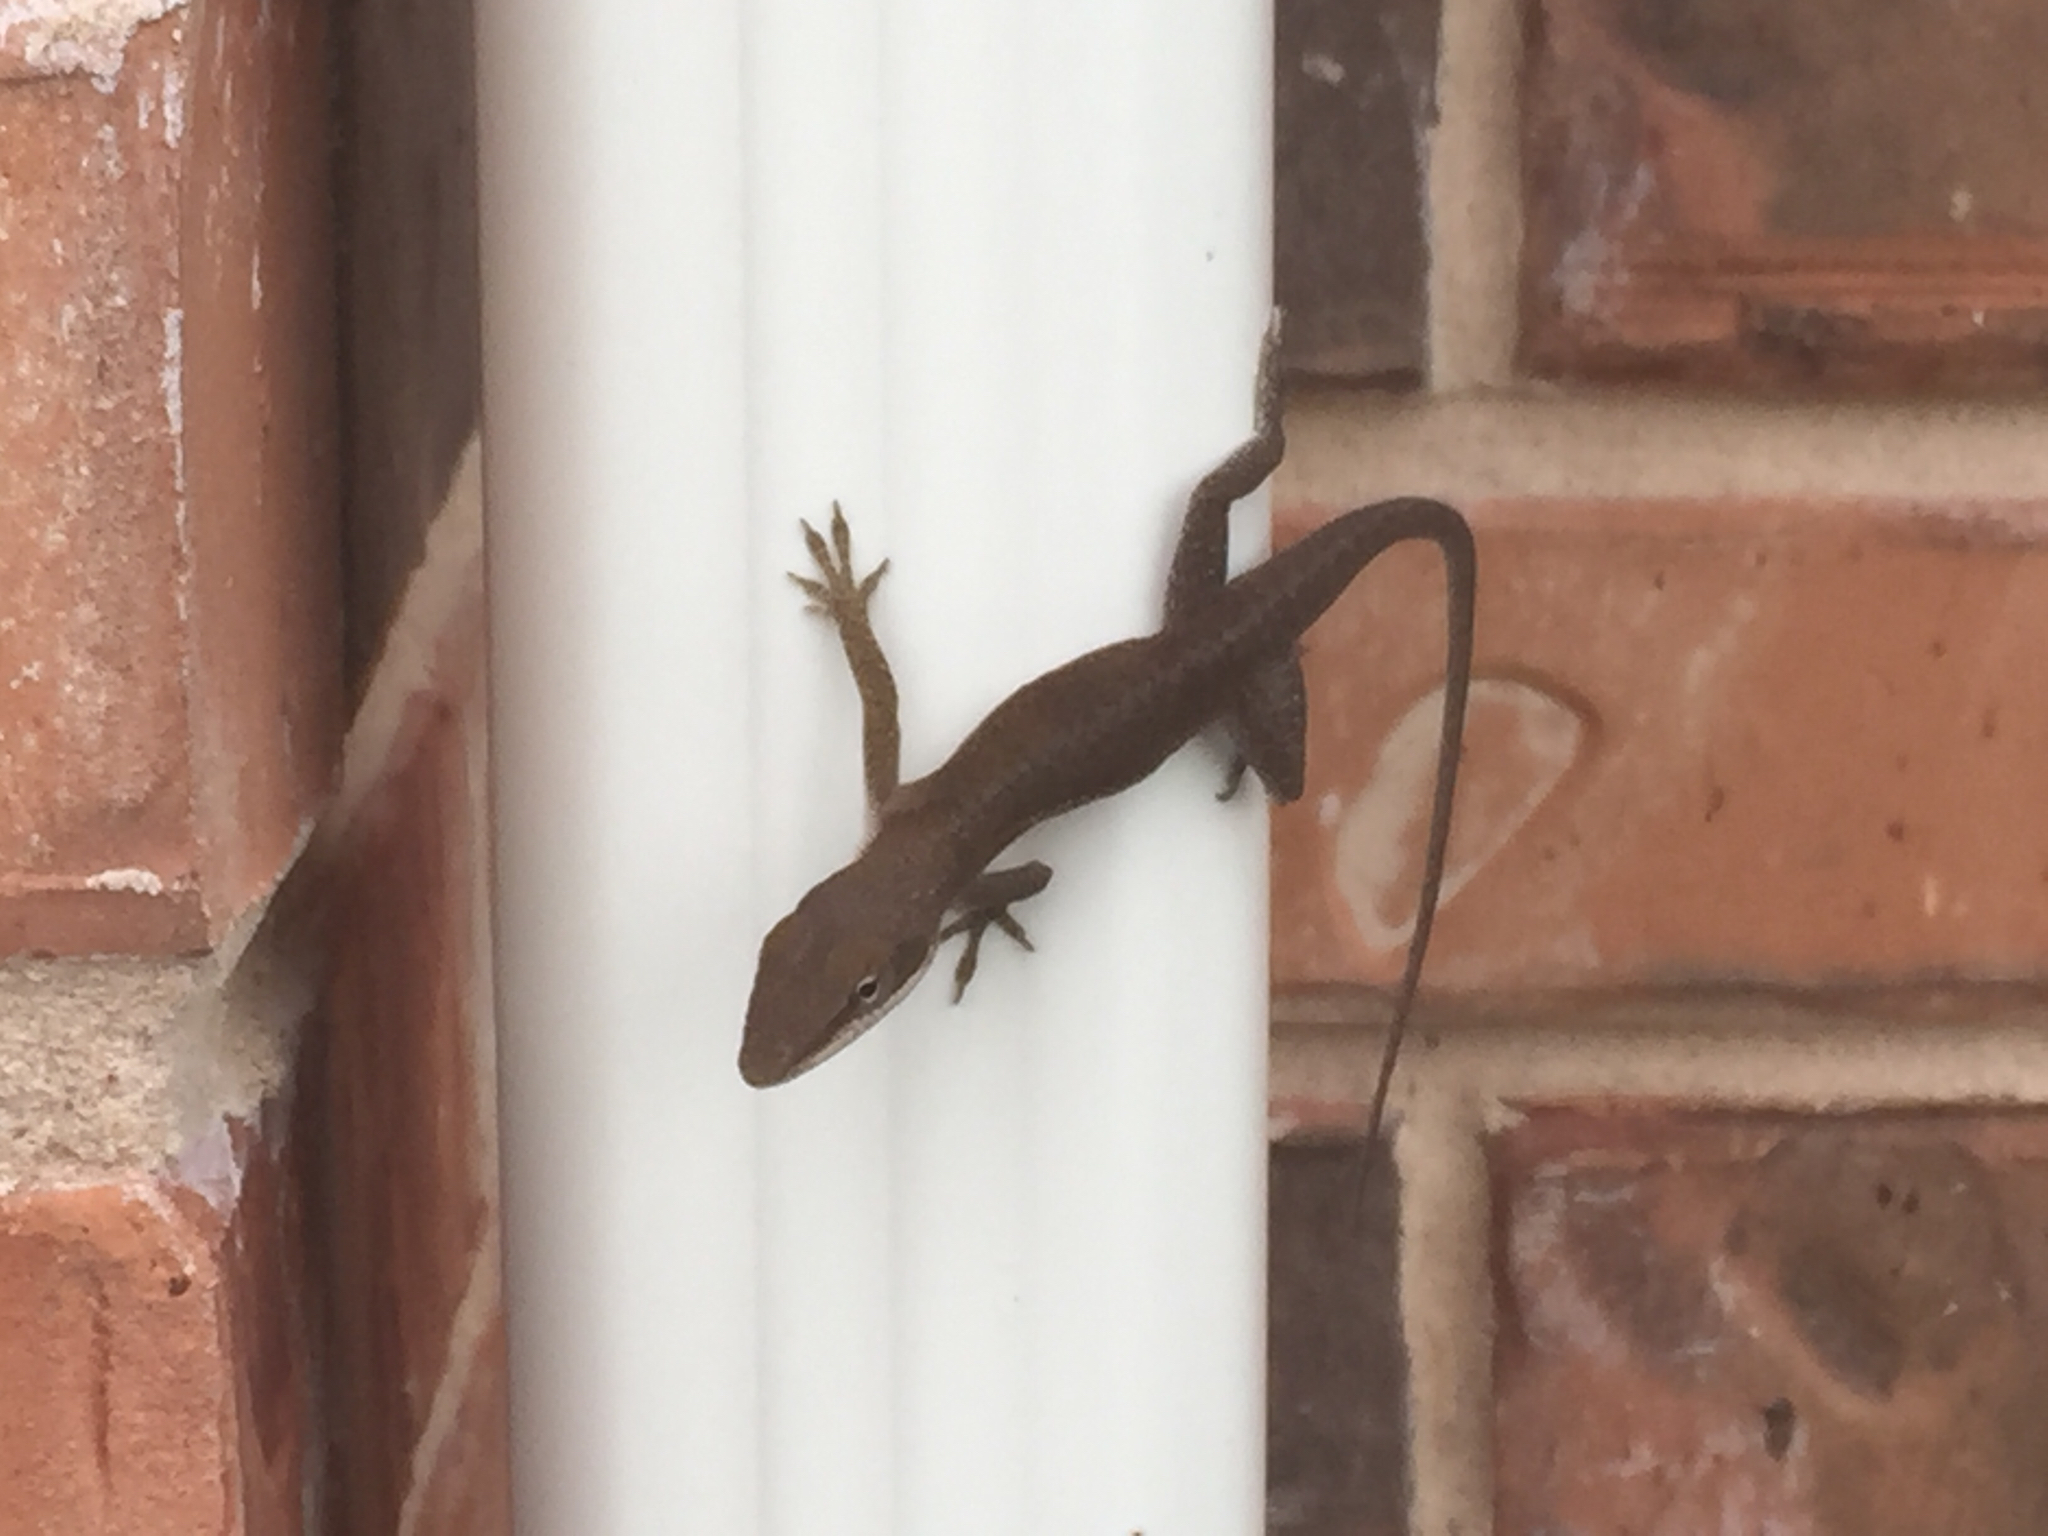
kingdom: Animalia
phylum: Chordata
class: Squamata
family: Dactyloidae
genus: Anolis
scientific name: Anolis carolinensis
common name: Green anole
